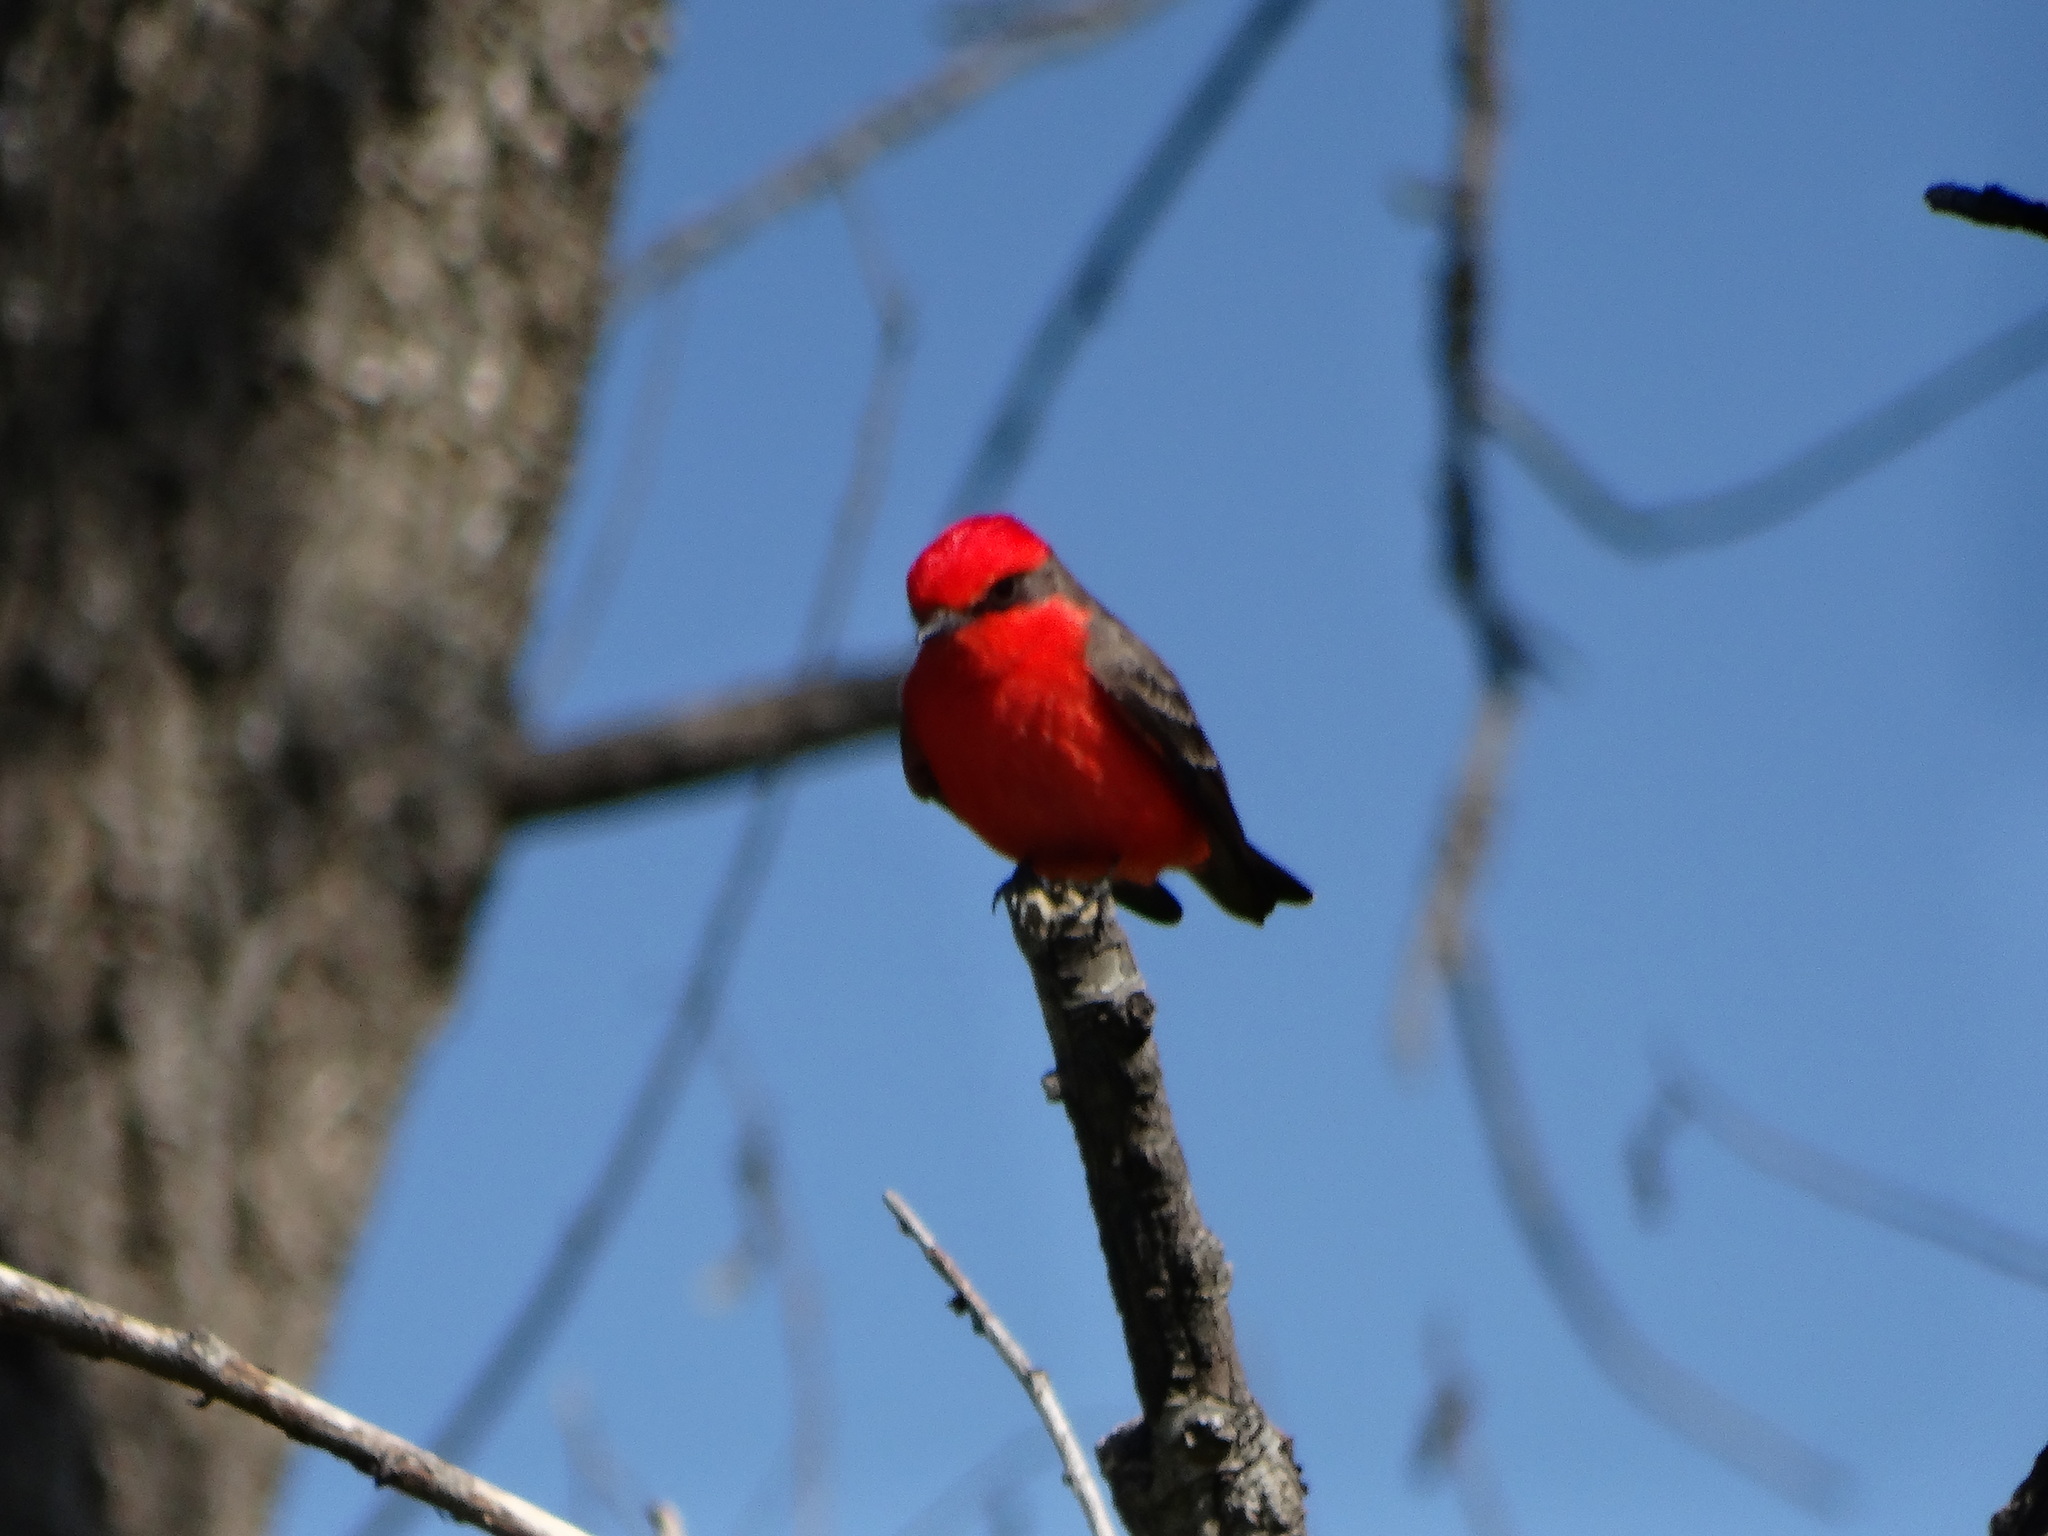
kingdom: Animalia
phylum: Chordata
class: Aves
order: Passeriformes
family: Tyrannidae
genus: Pyrocephalus
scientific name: Pyrocephalus rubinus
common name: Vermilion flycatcher
